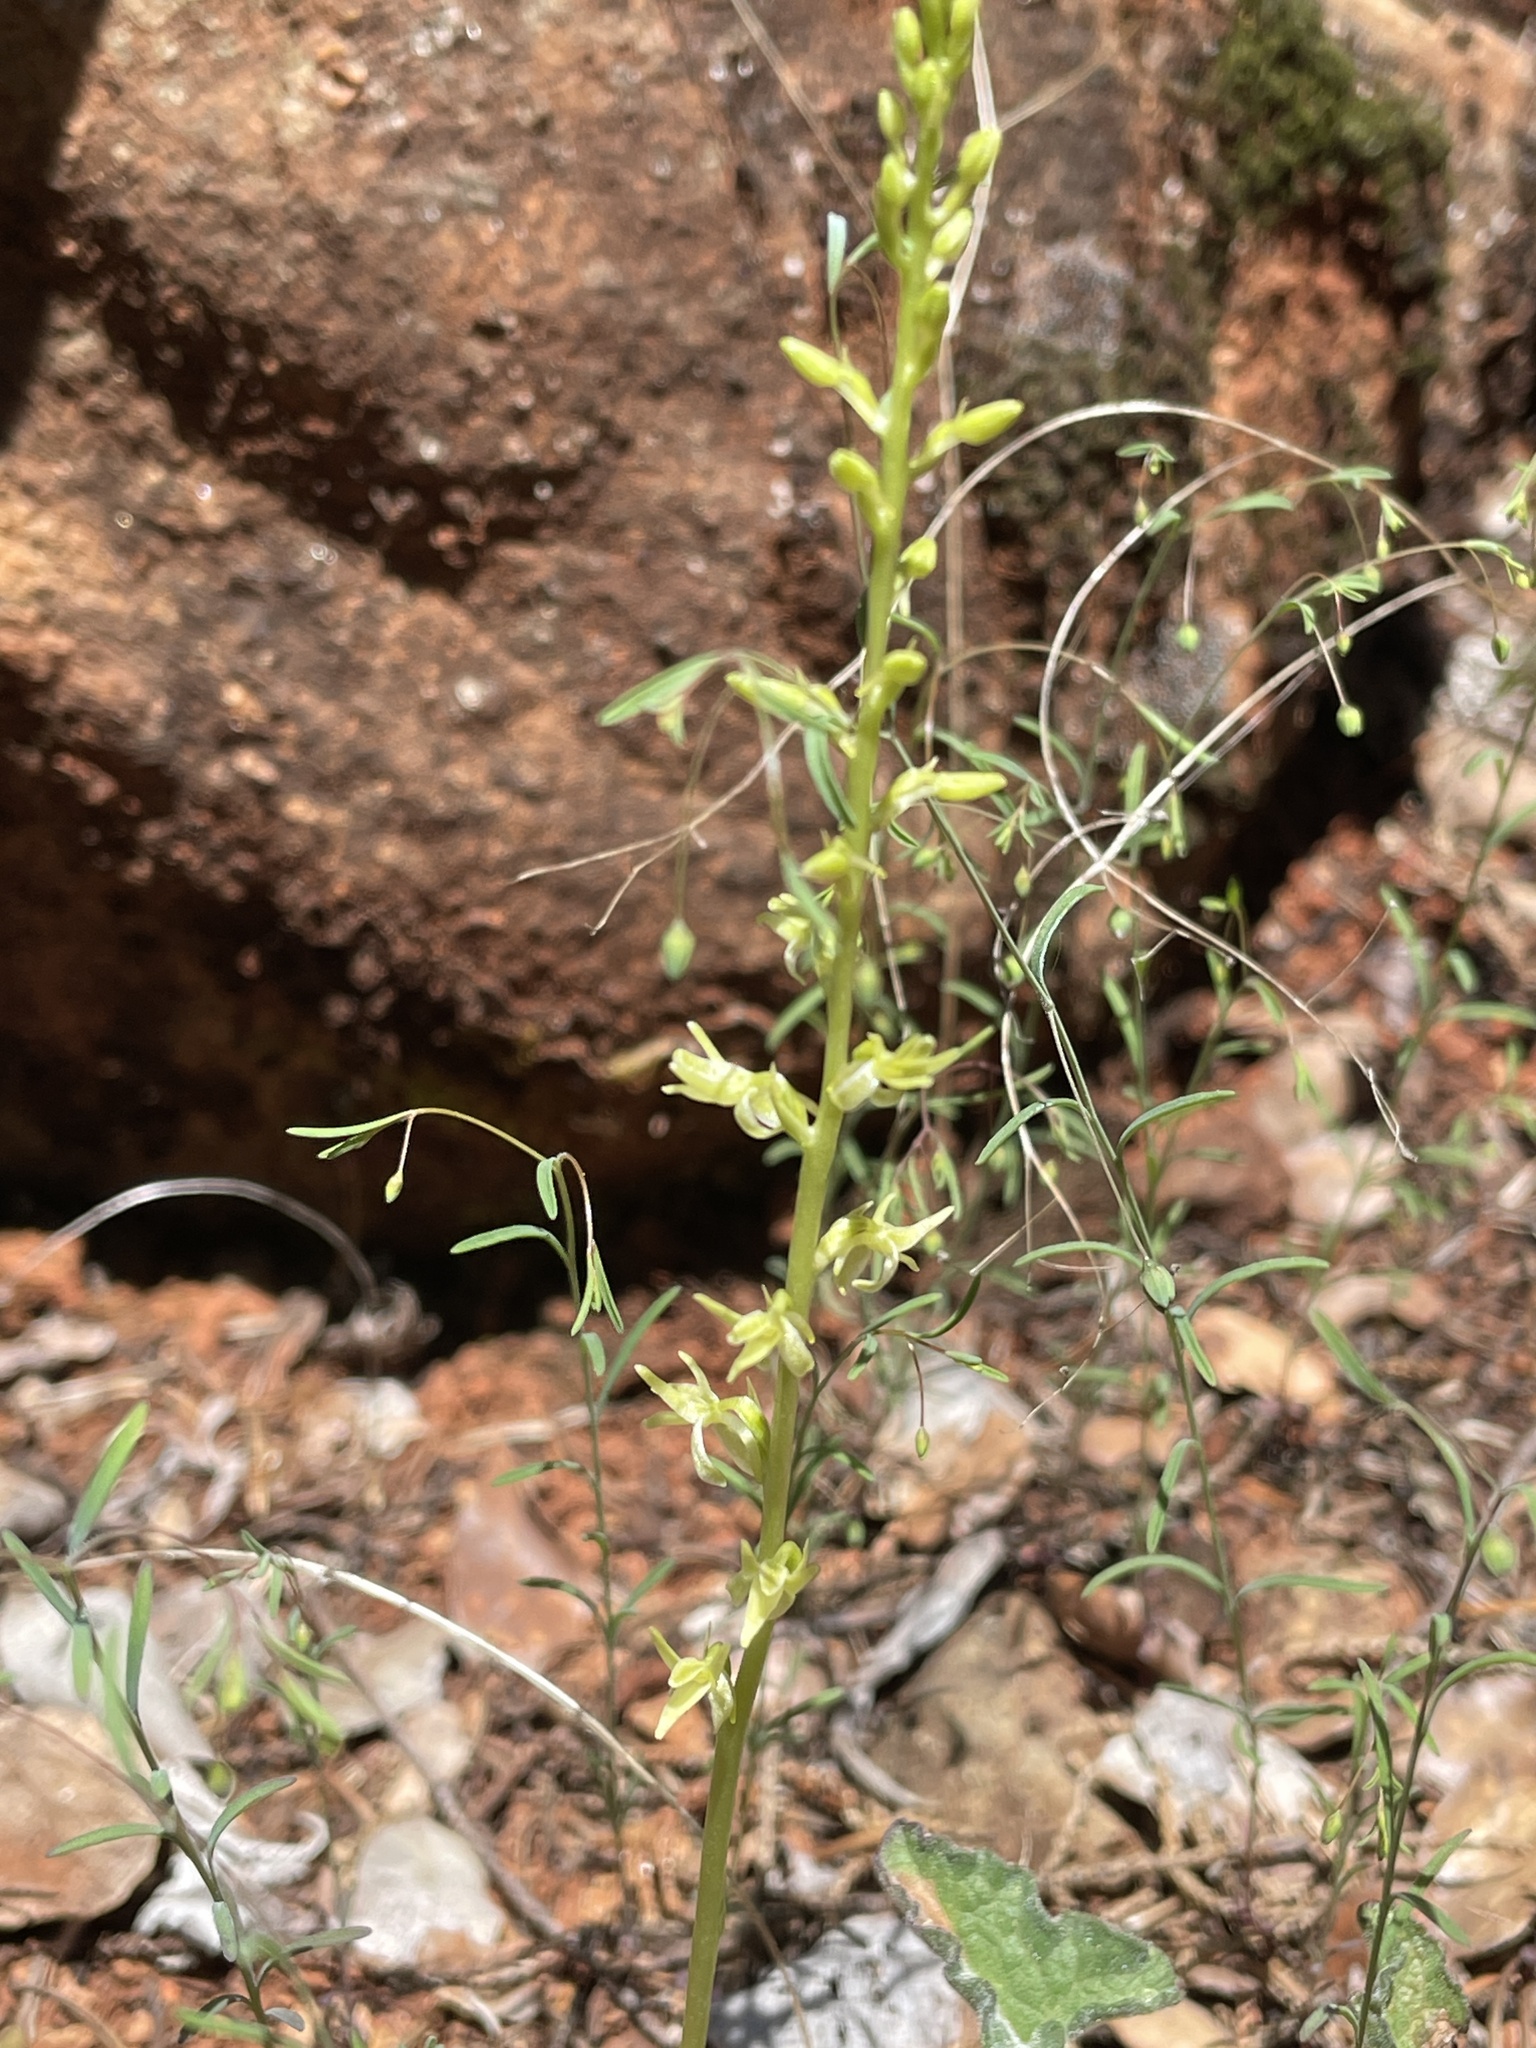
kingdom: Plantae
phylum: Tracheophyta
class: Liliopsida
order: Asparagales
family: Orchidaceae
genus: Platanthera
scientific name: Platanthera leptopetala
